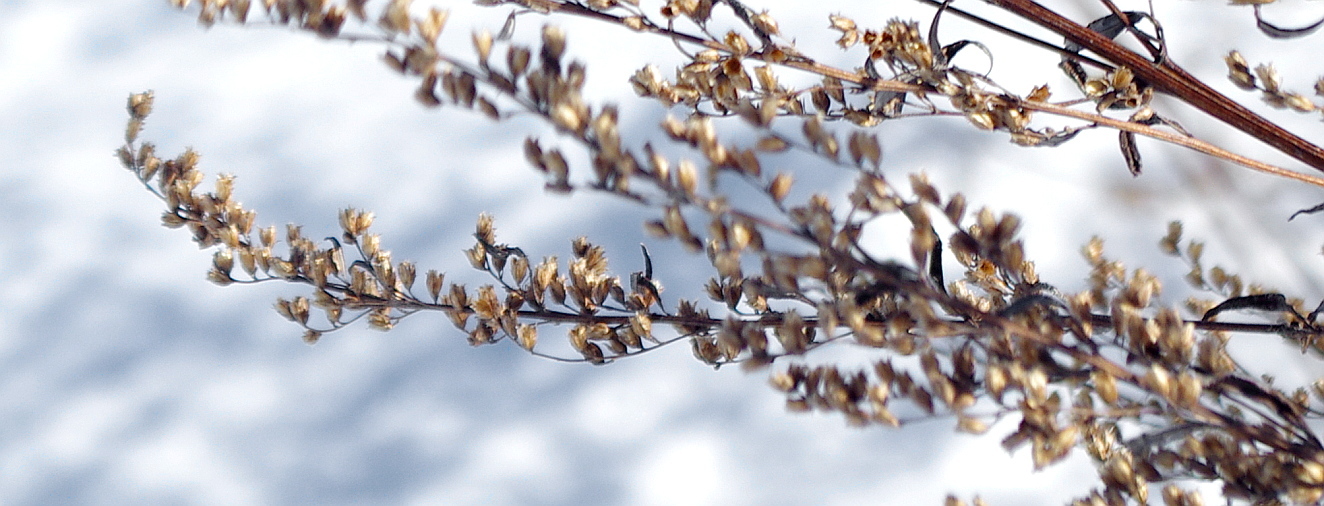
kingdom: Plantae
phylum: Tracheophyta
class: Magnoliopsida
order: Asterales
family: Asteraceae
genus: Artemisia
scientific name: Artemisia vulgaris
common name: Mugwort
